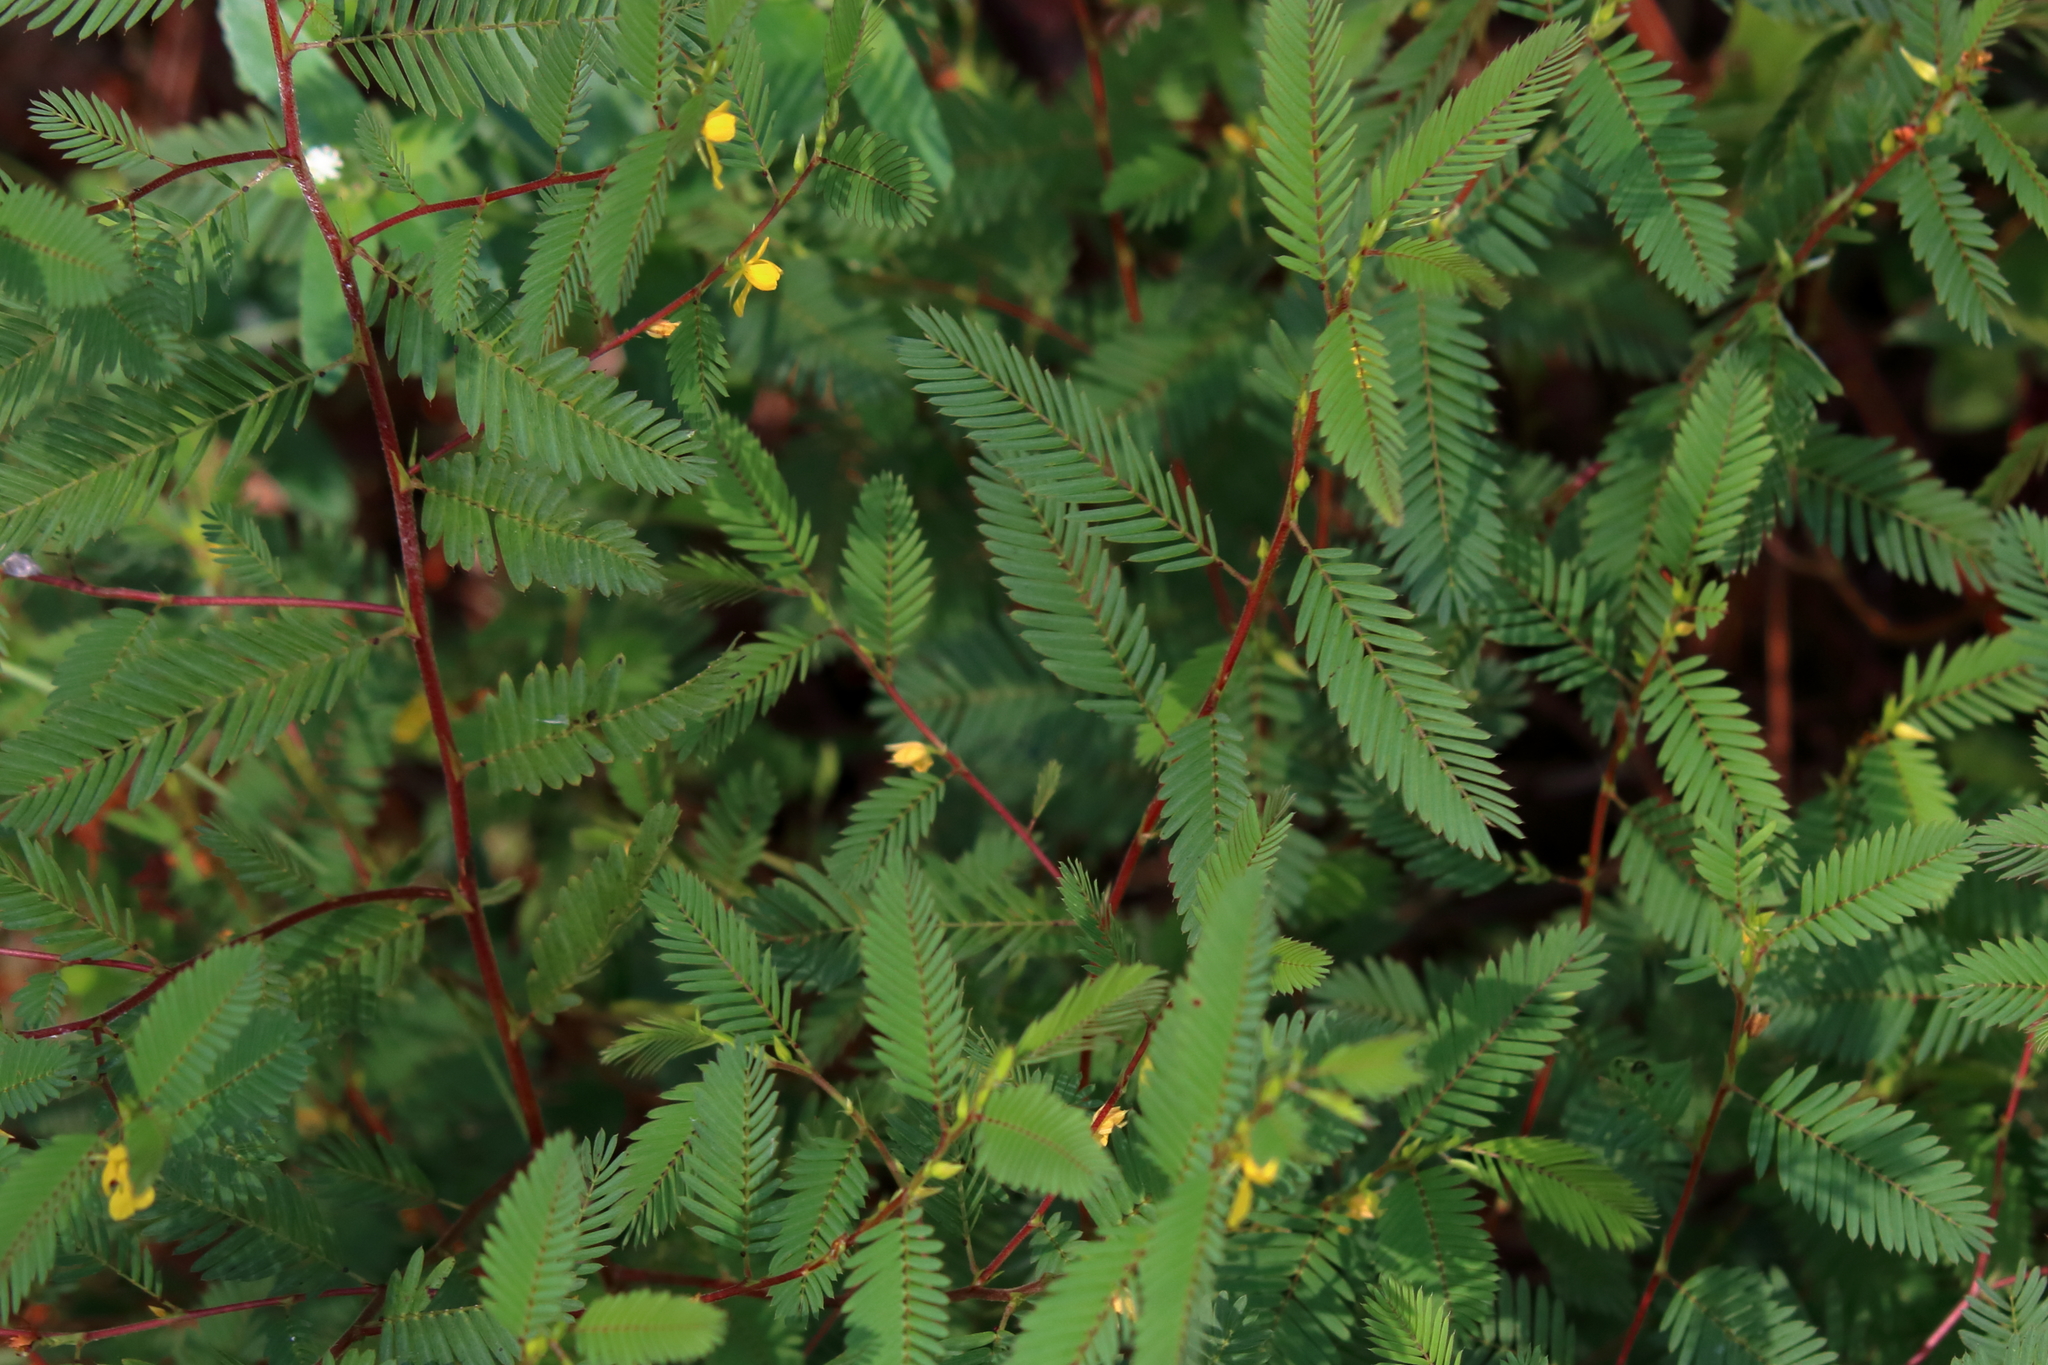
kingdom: Plantae
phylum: Tracheophyta
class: Magnoliopsida
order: Fabales
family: Fabaceae
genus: Chamaecrista
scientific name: Chamaecrista nictitans
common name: Sensitive cassia
